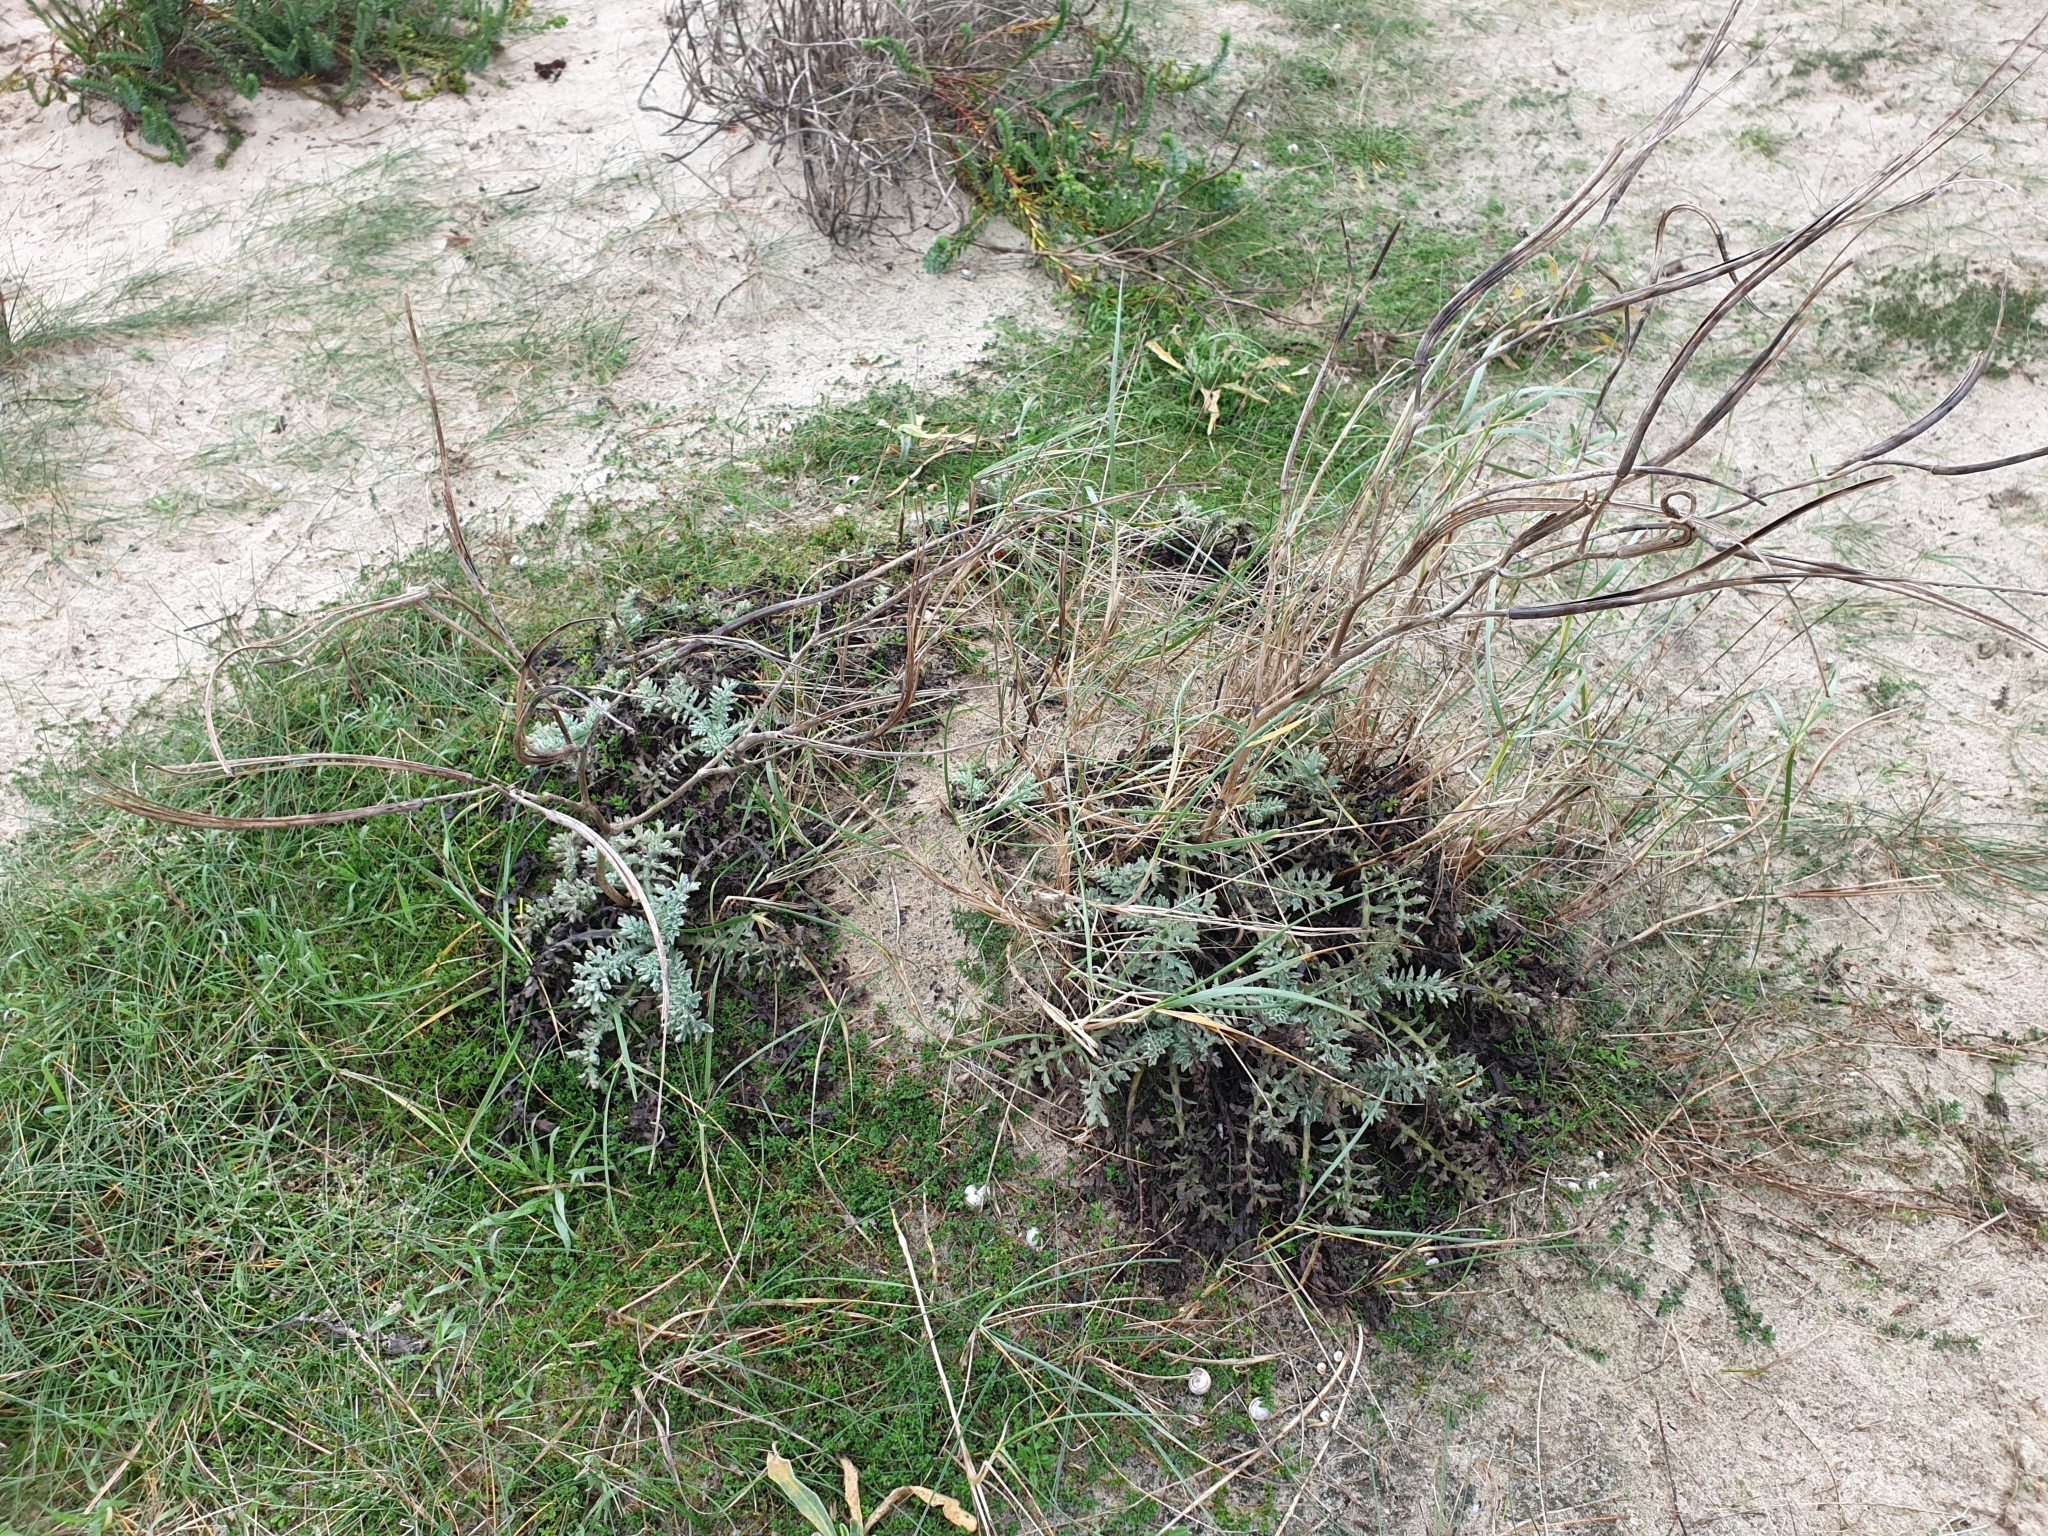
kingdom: Plantae
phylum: Tracheophyta
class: Magnoliopsida
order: Ranunculales
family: Papaveraceae
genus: Glaucium
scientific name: Glaucium flavum
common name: Yellow horned-poppy
